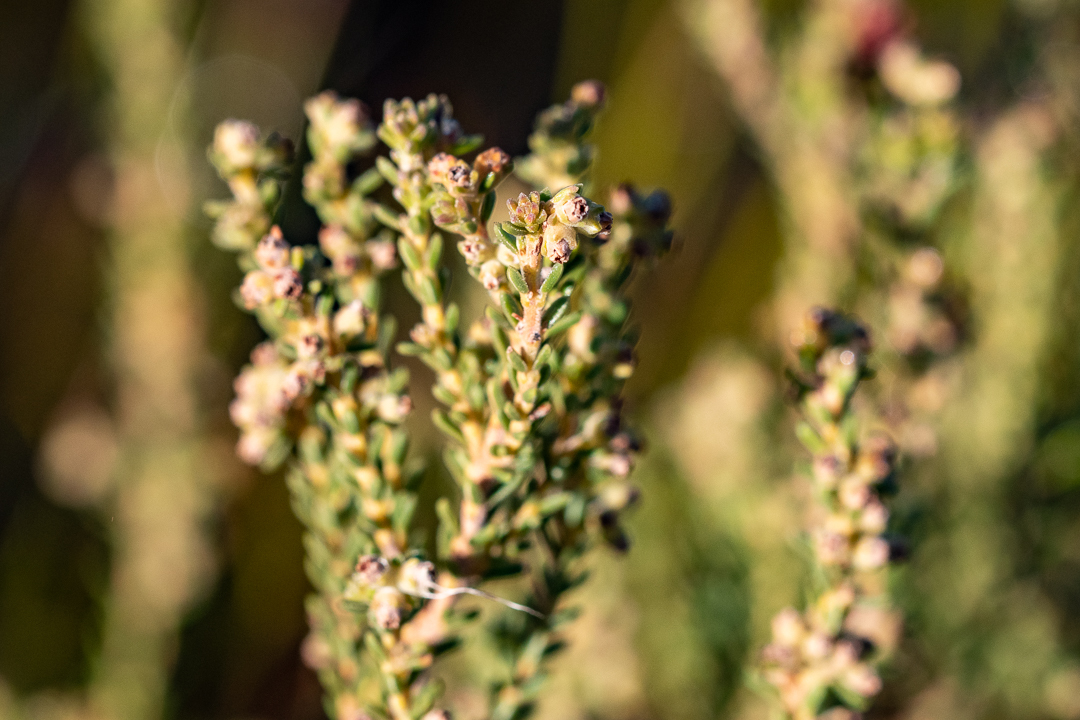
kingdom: Plantae
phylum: Tracheophyta
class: Magnoliopsida
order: Ericales
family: Ericaceae
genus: Erica
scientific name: Erica serrata
